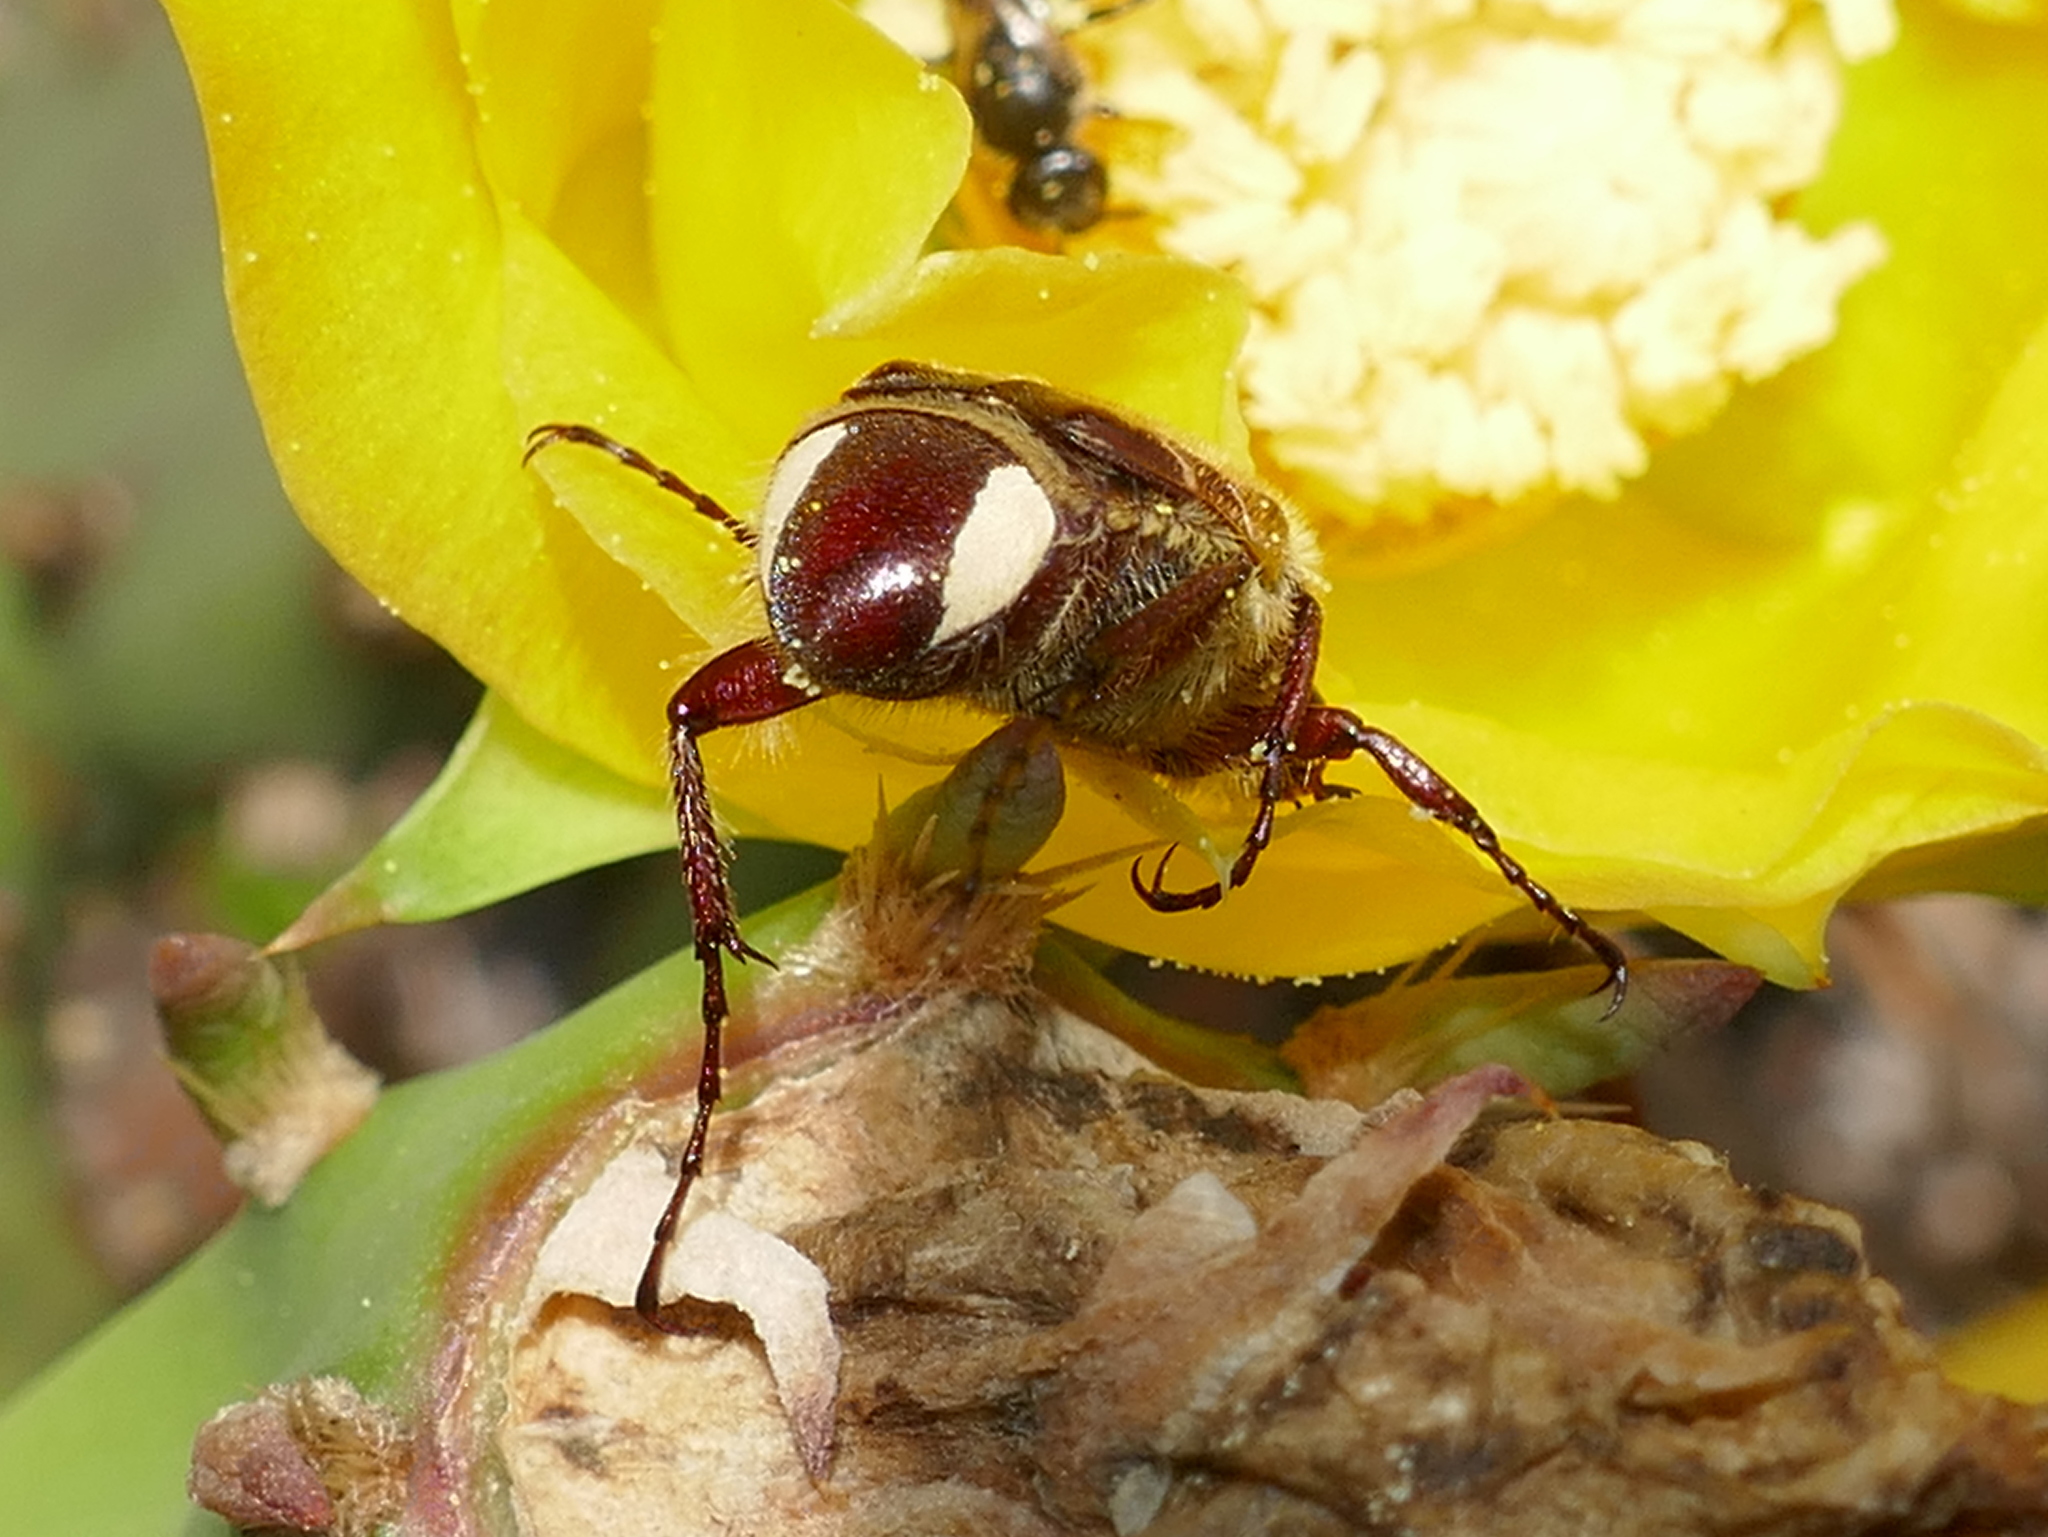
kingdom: Animalia
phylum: Arthropoda
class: Insecta
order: Coleoptera
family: Scarabaeidae
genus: Trichiotinus
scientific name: Trichiotinus rufobrunneus
